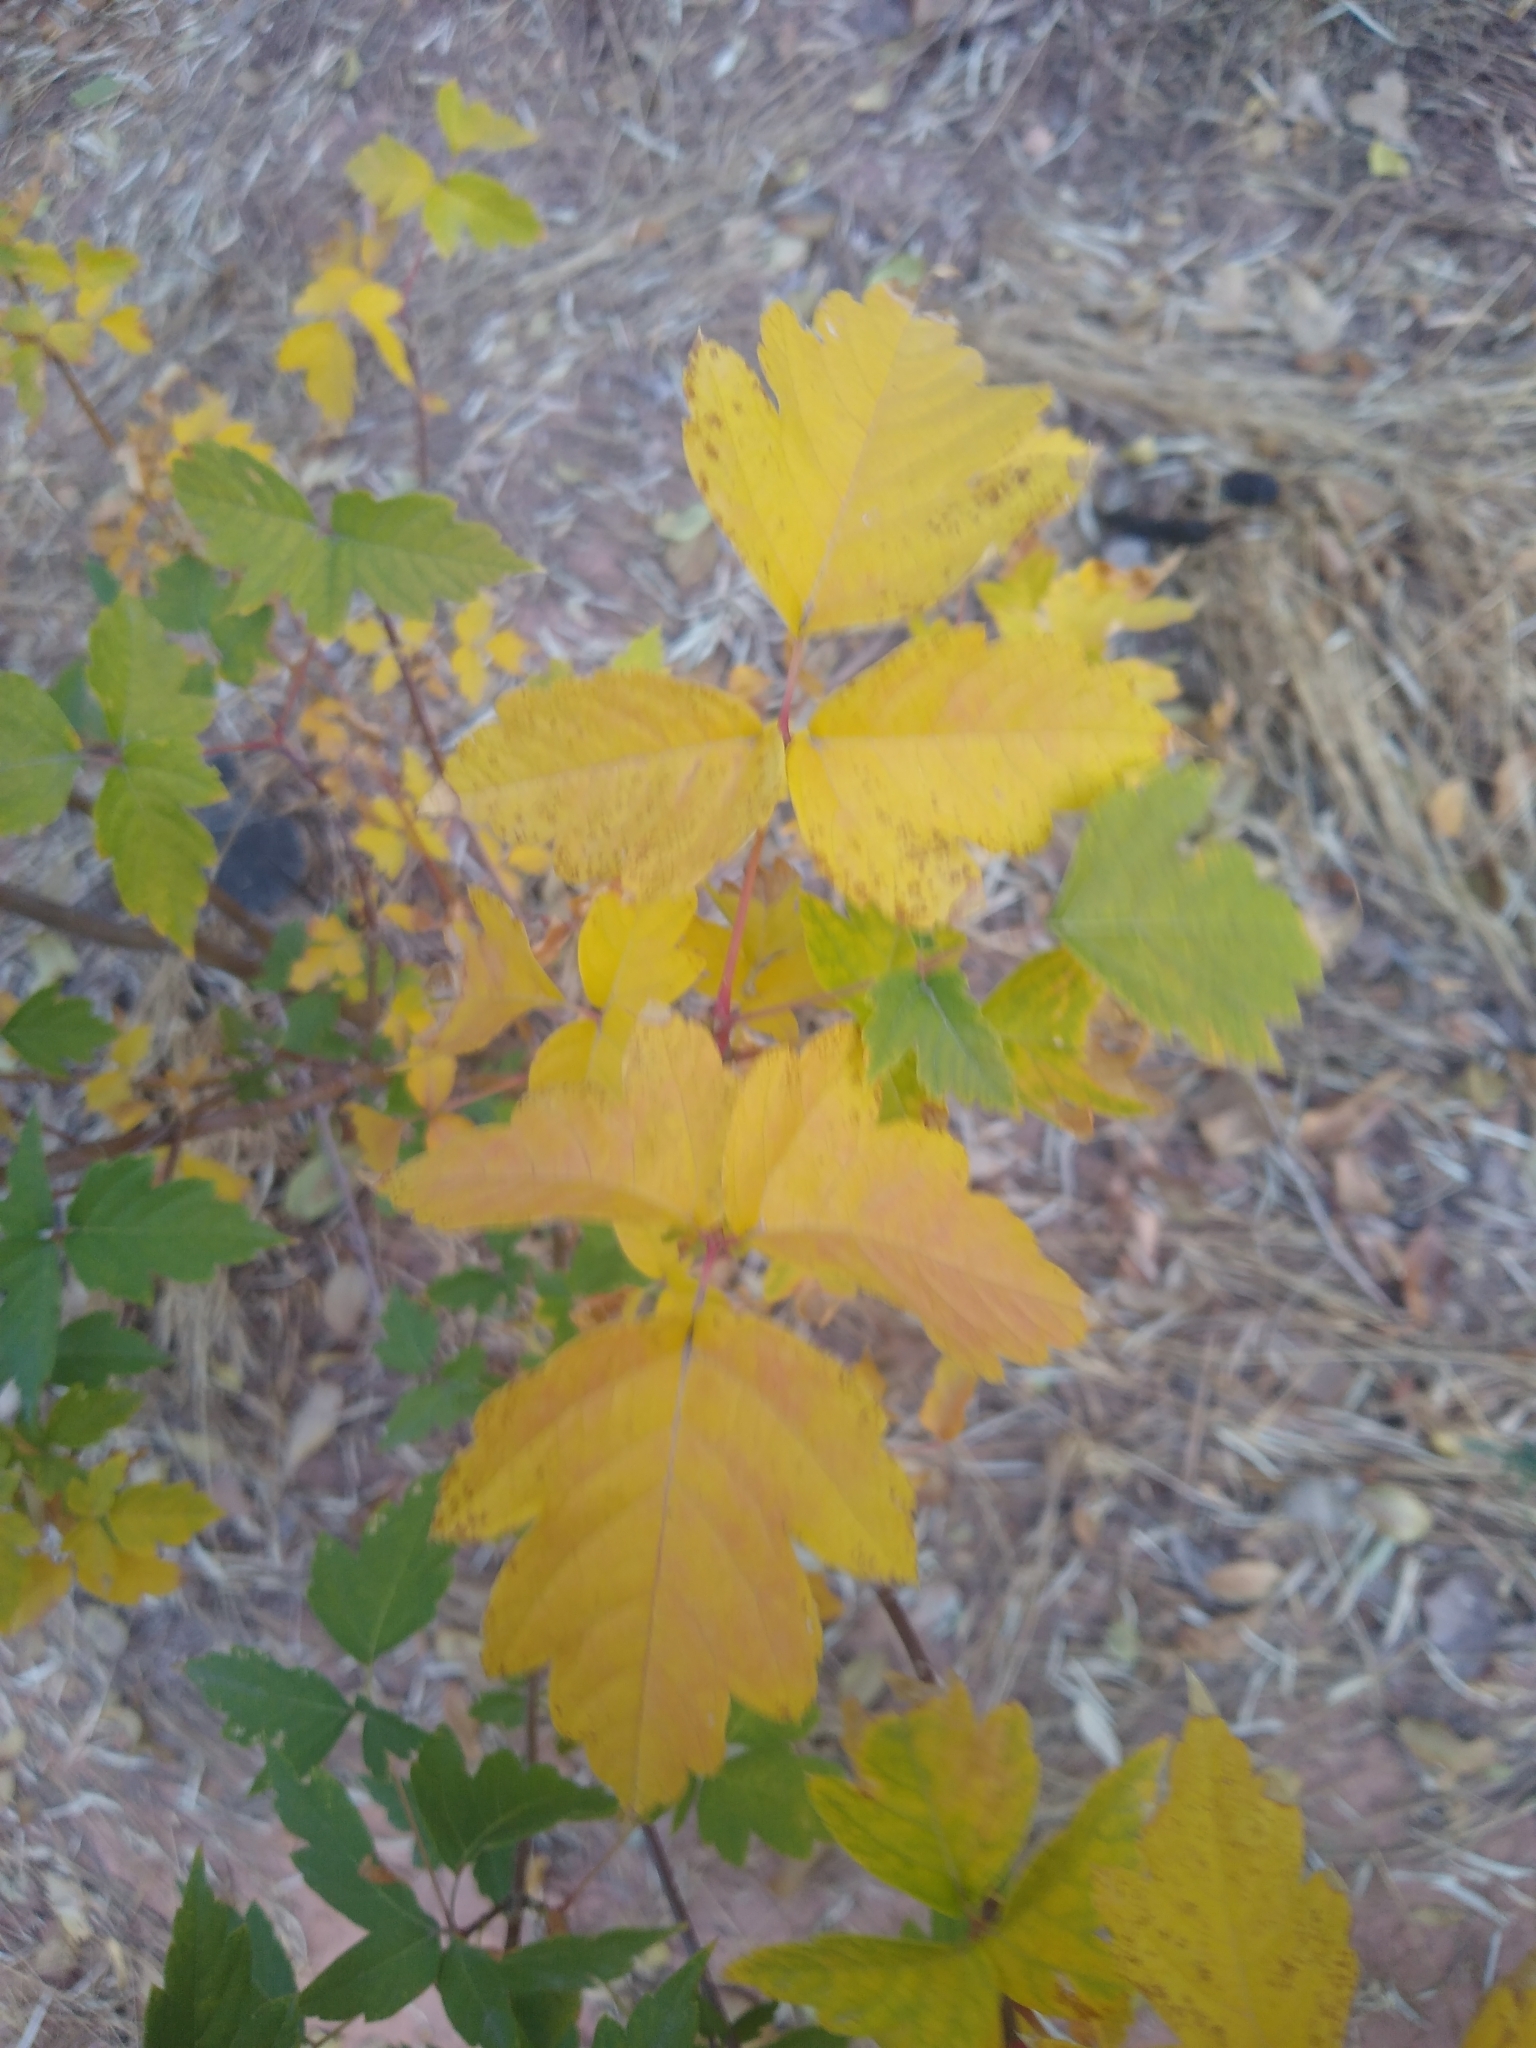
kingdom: Plantae
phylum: Tracheophyta
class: Magnoliopsida
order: Sapindales
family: Sapindaceae
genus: Acer
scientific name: Acer negundo
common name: Ashleaf maple
